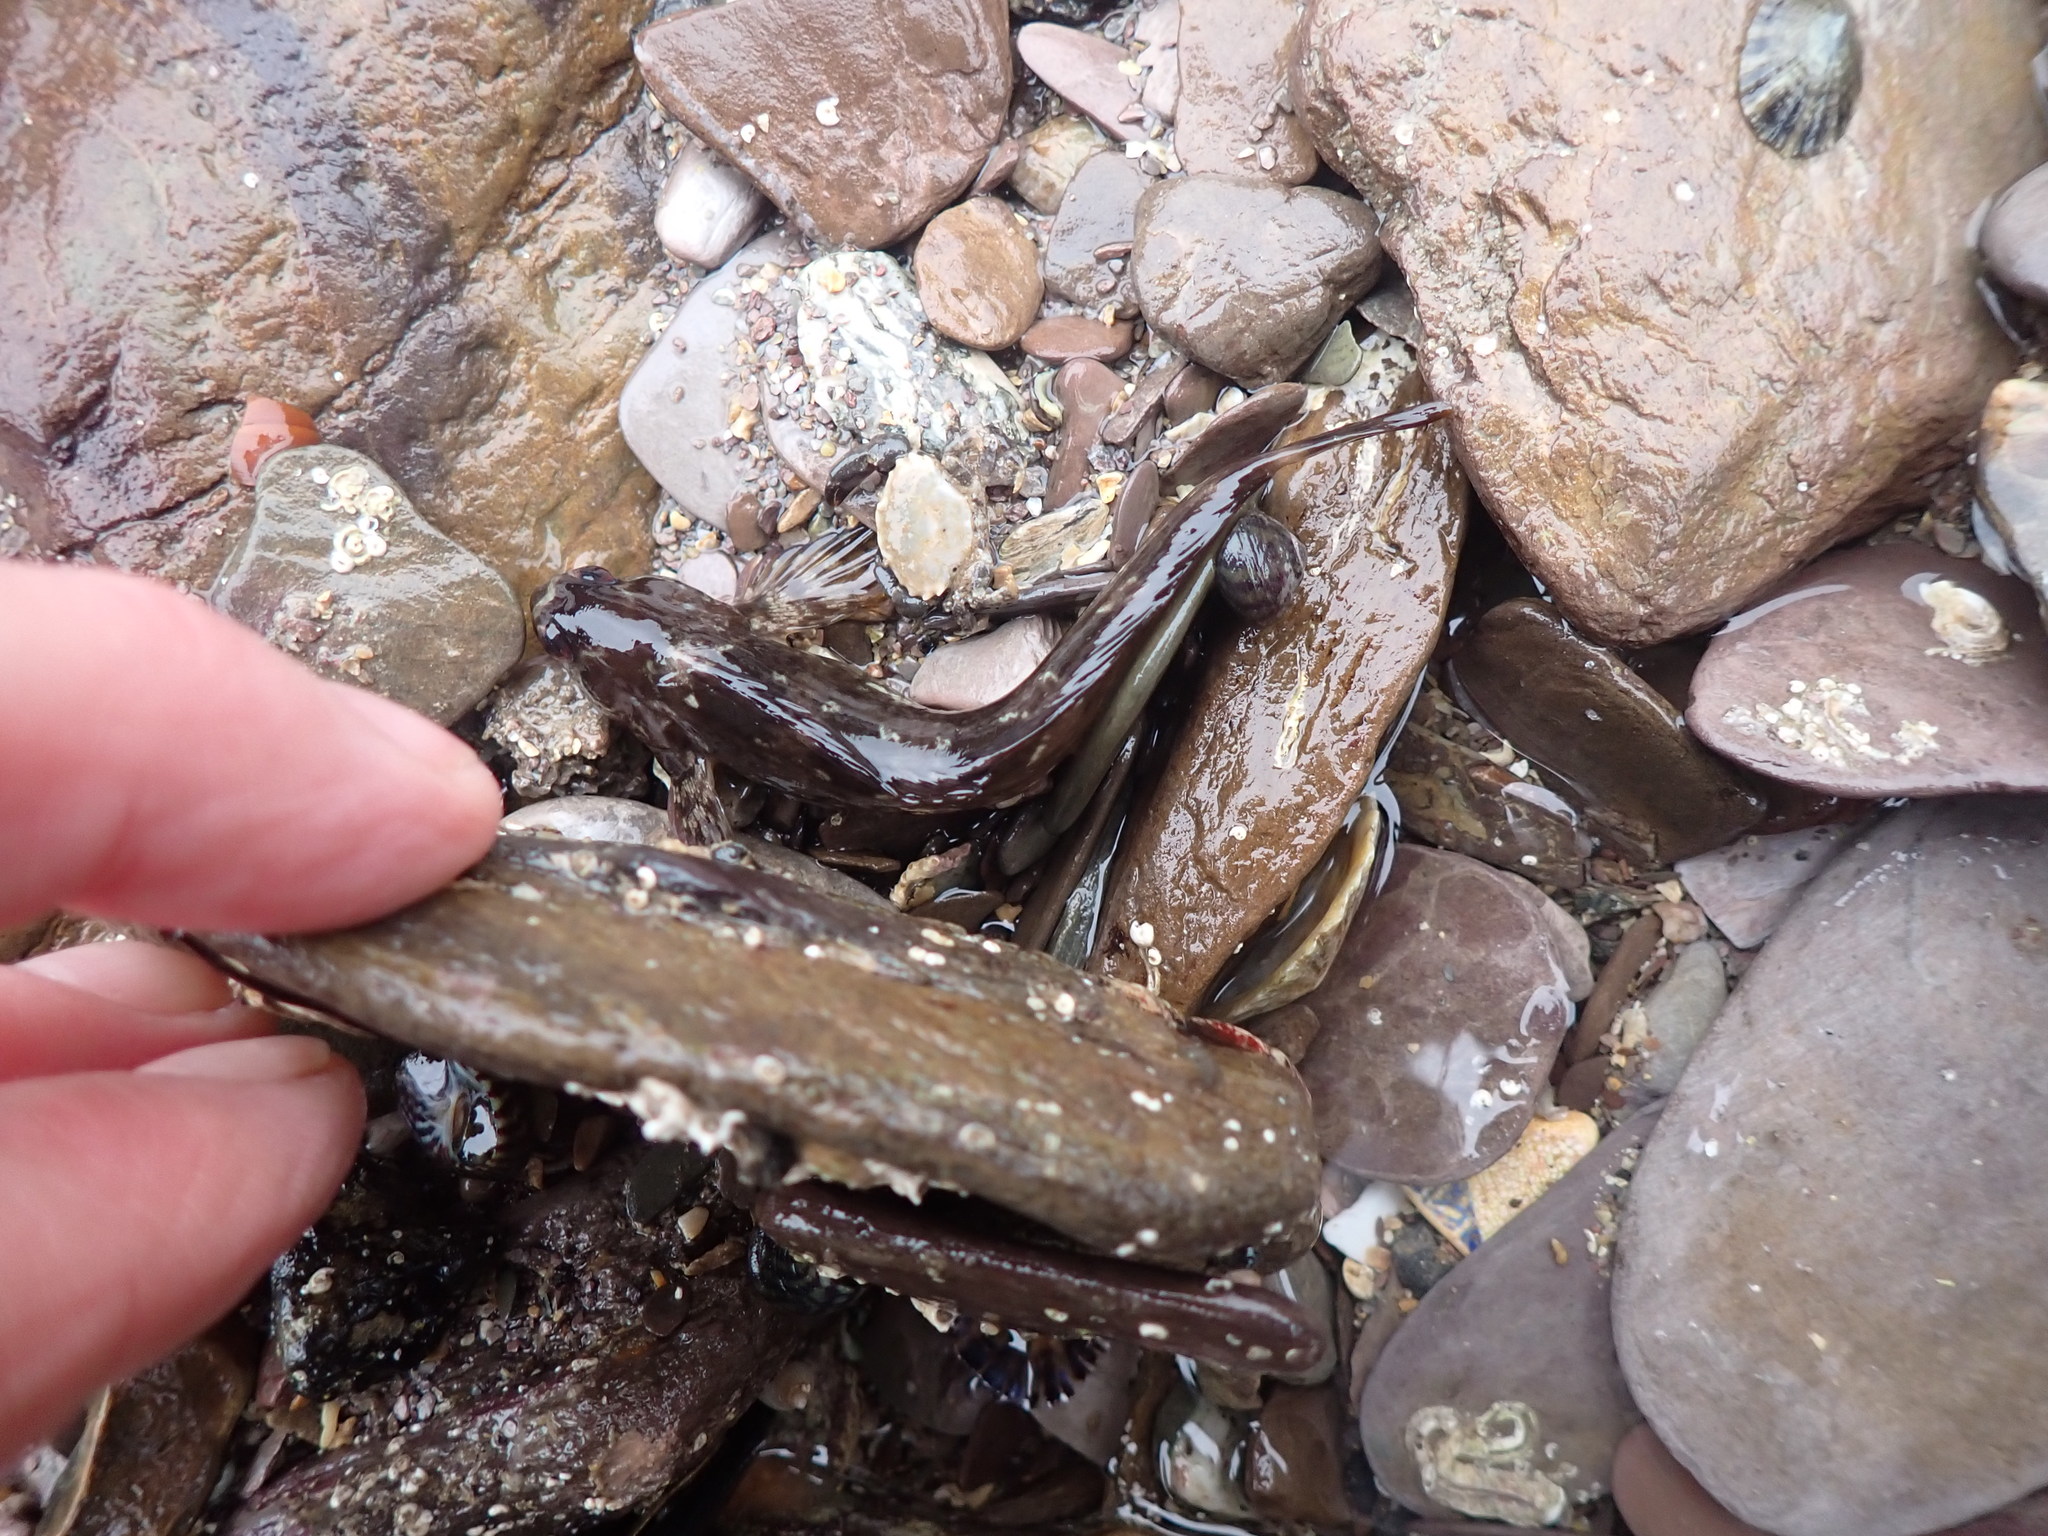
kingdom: Animalia
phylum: Chordata
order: Perciformes
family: Blenniidae
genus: Lipophrys
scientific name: Lipophrys pholis
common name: Shanny
